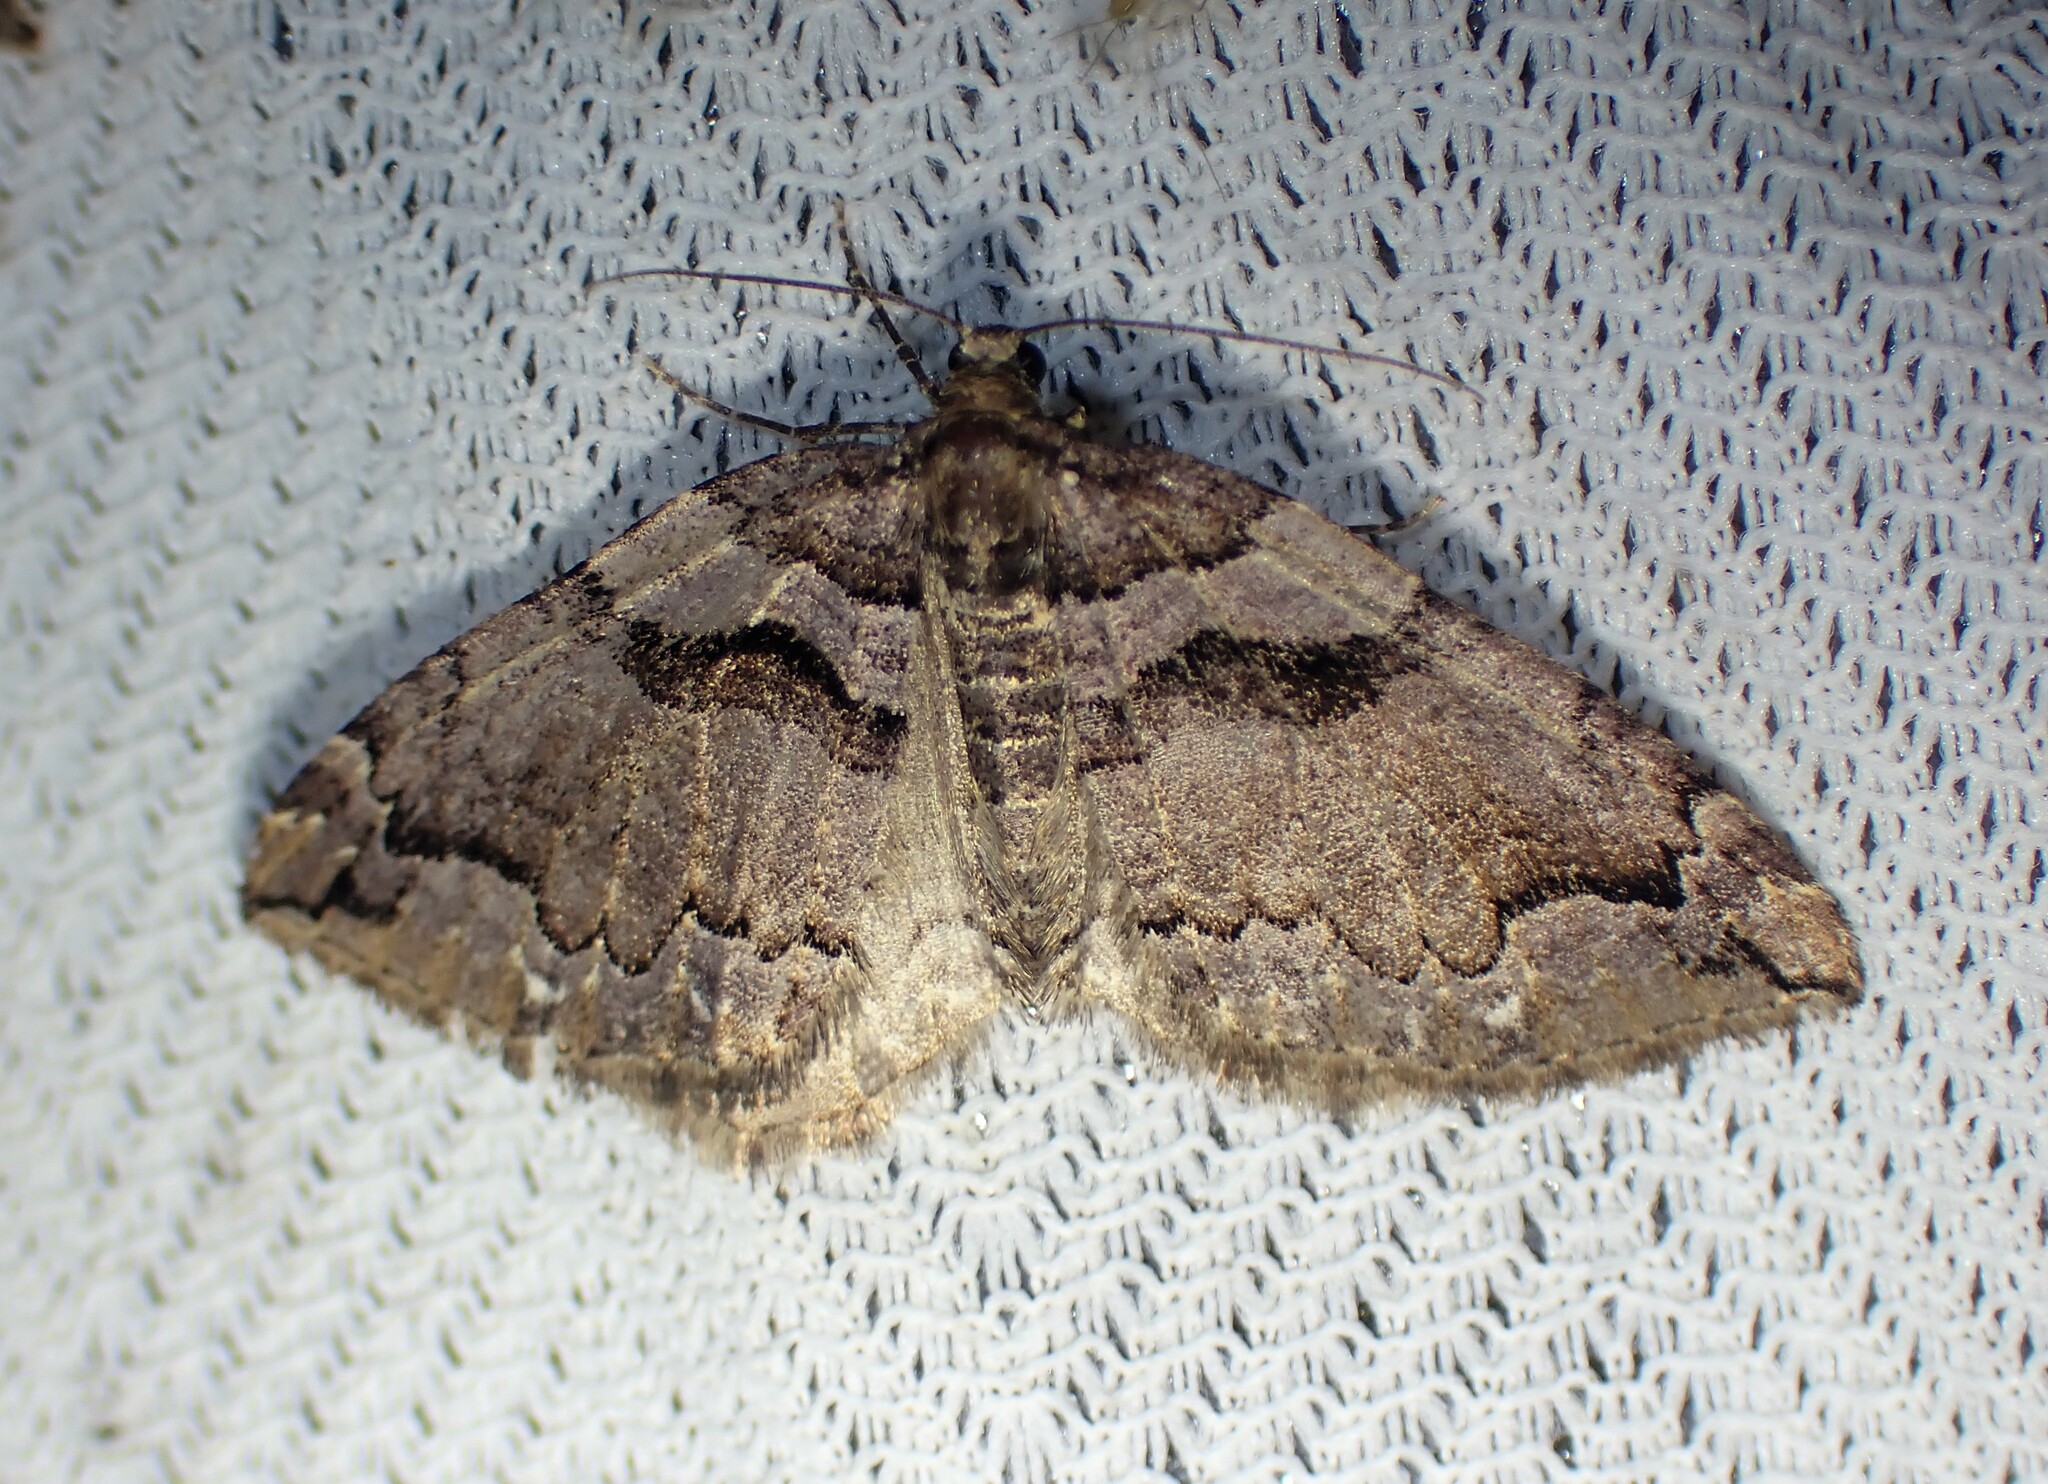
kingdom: Animalia
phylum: Arthropoda
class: Insecta
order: Lepidoptera
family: Geometridae
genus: Anticlea
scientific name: Anticlea vasiliata
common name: Variable carpet
